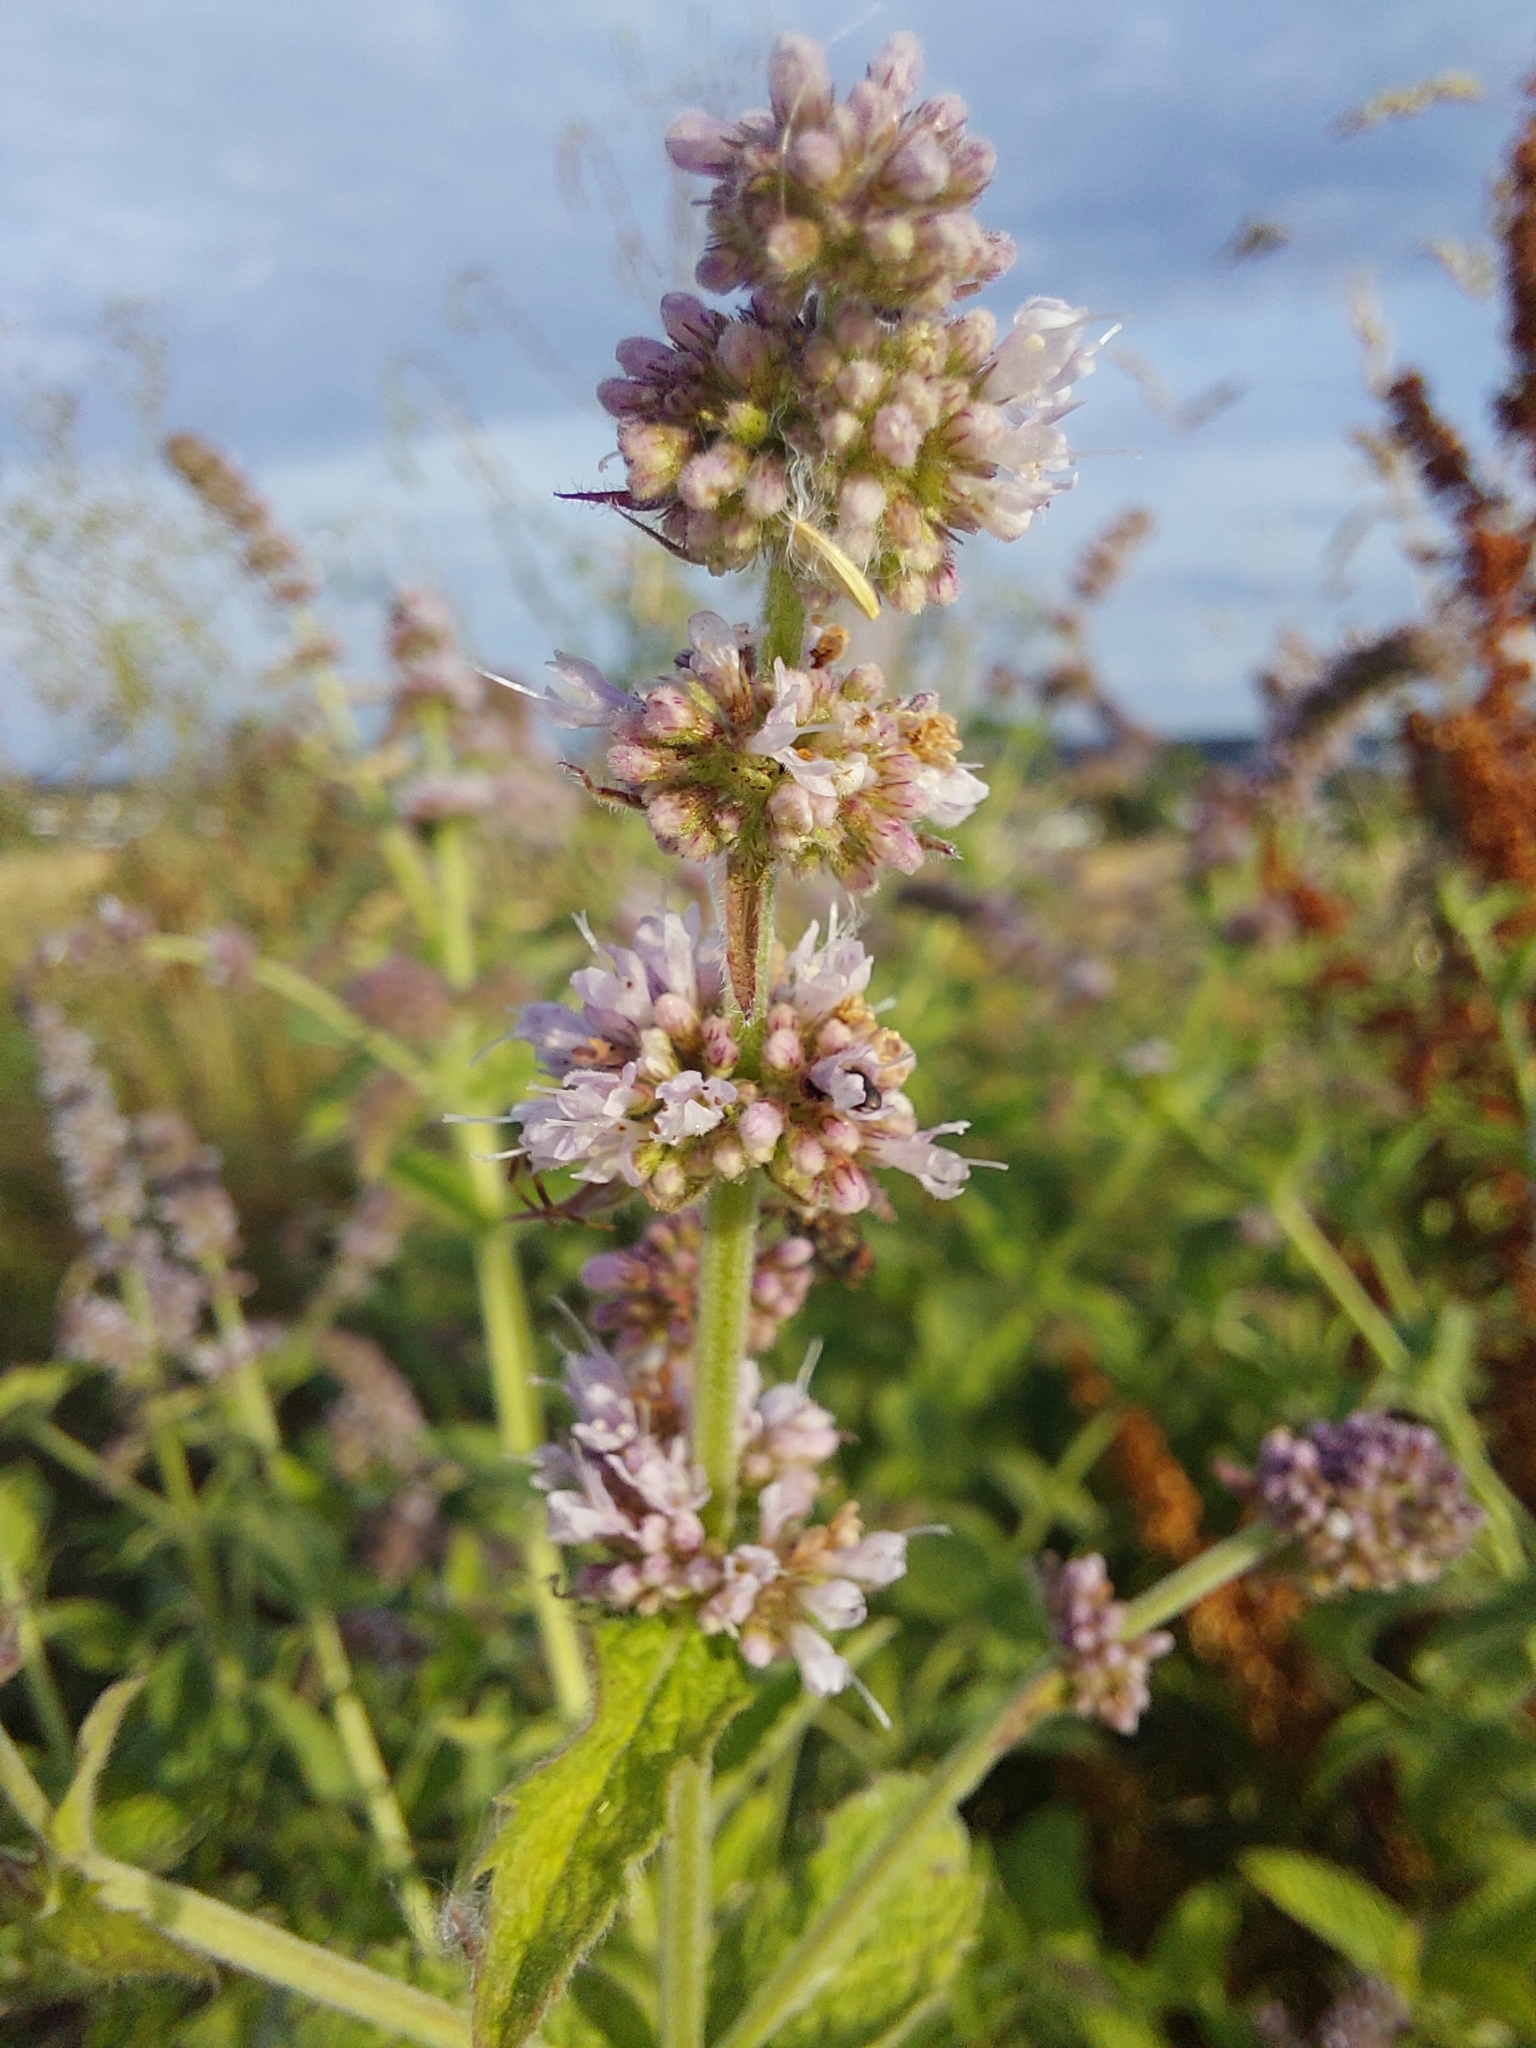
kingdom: Plantae
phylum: Tracheophyta
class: Magnoliopsida
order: Lamiales
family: Lamiaceae
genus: Mentha
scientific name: Mentha longifolia
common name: Horse mint
